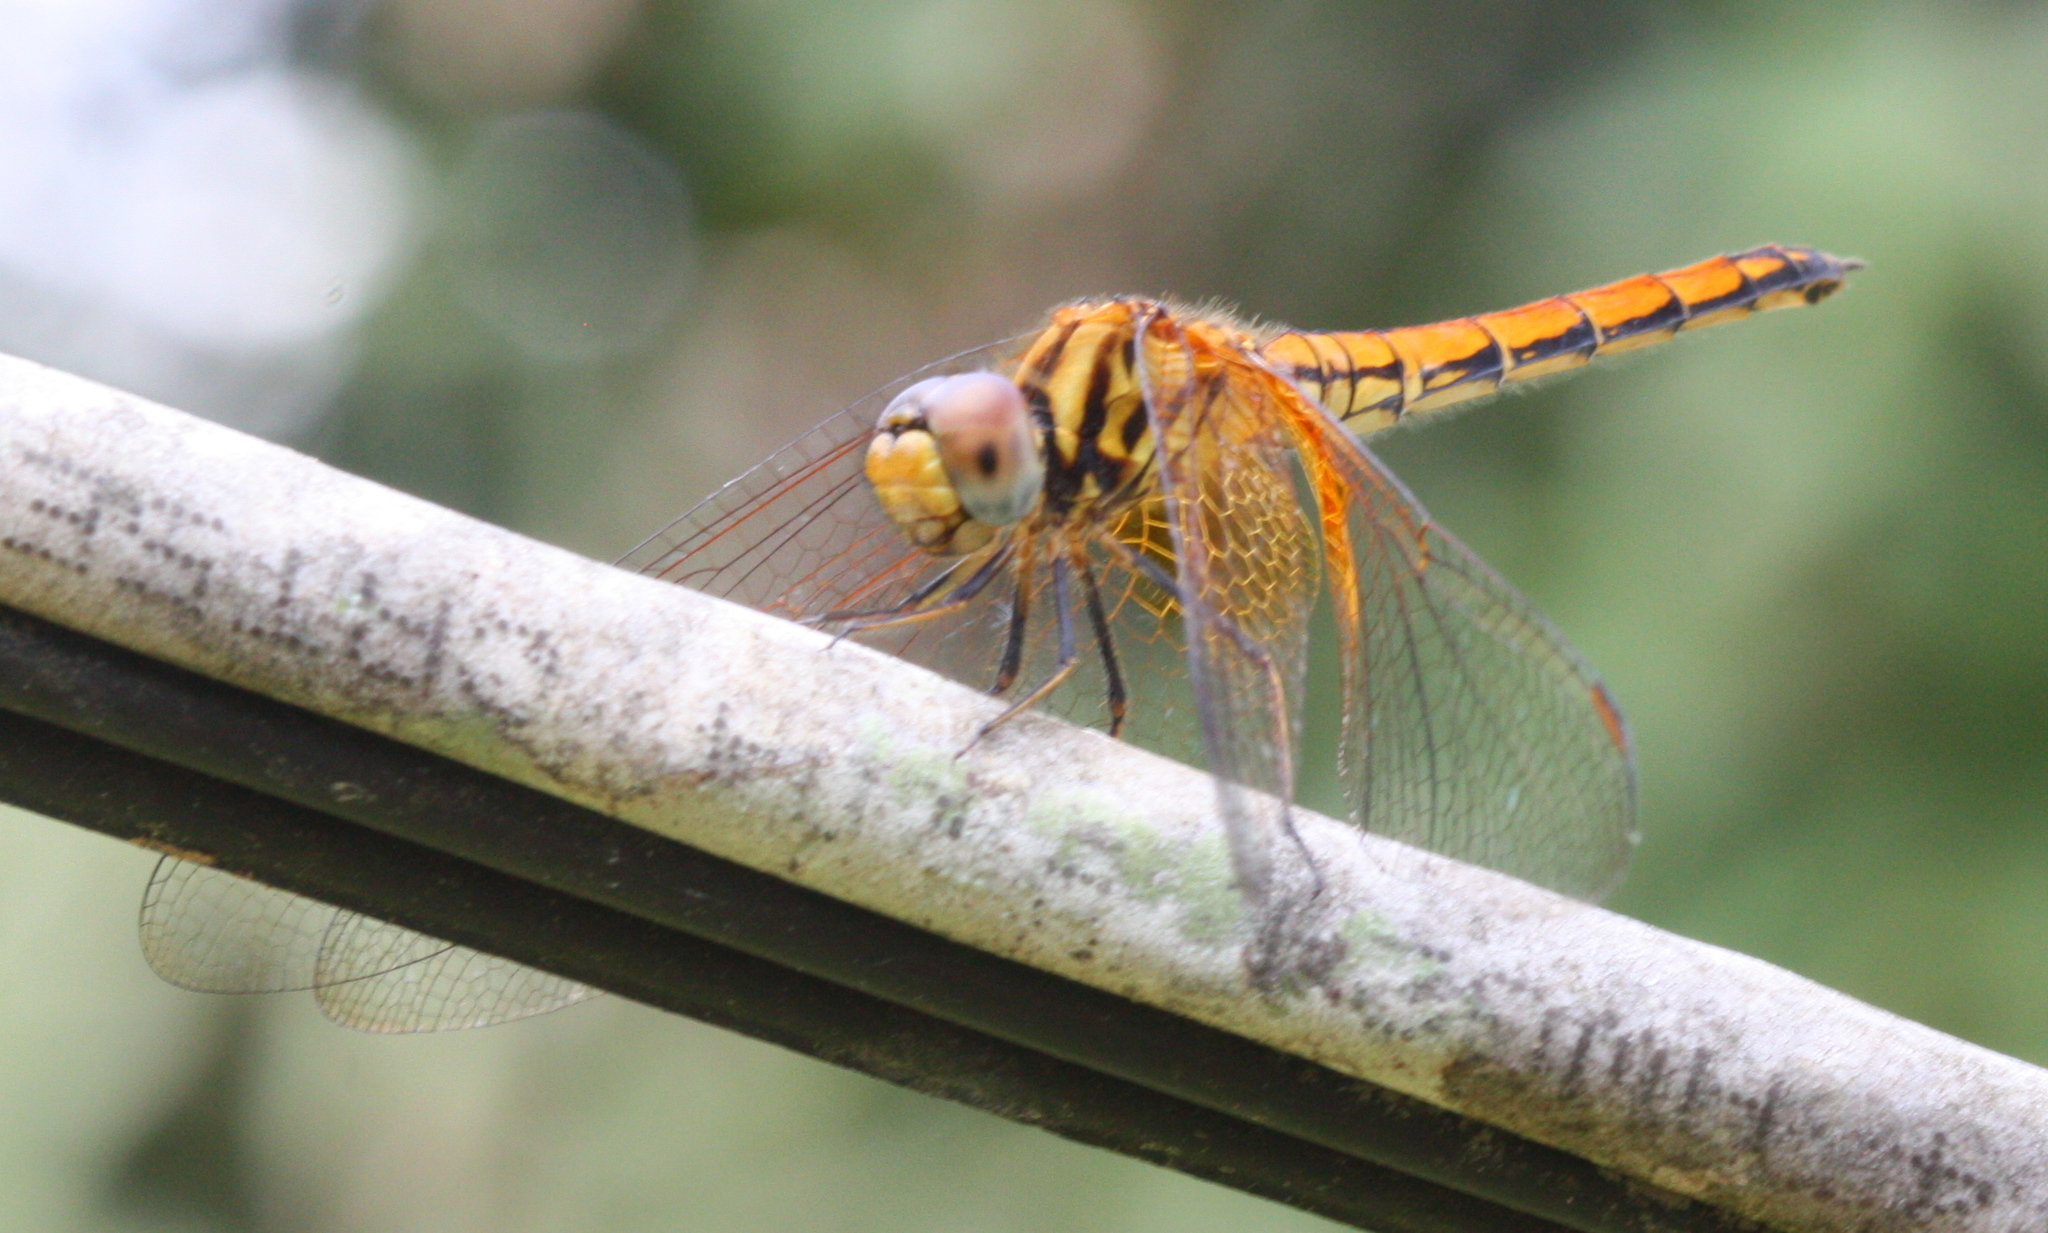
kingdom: Animalia
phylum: Arthropoda
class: Insecta
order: Odonata
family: Libellulidae
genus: Trithemis
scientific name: Trithemis aurora
